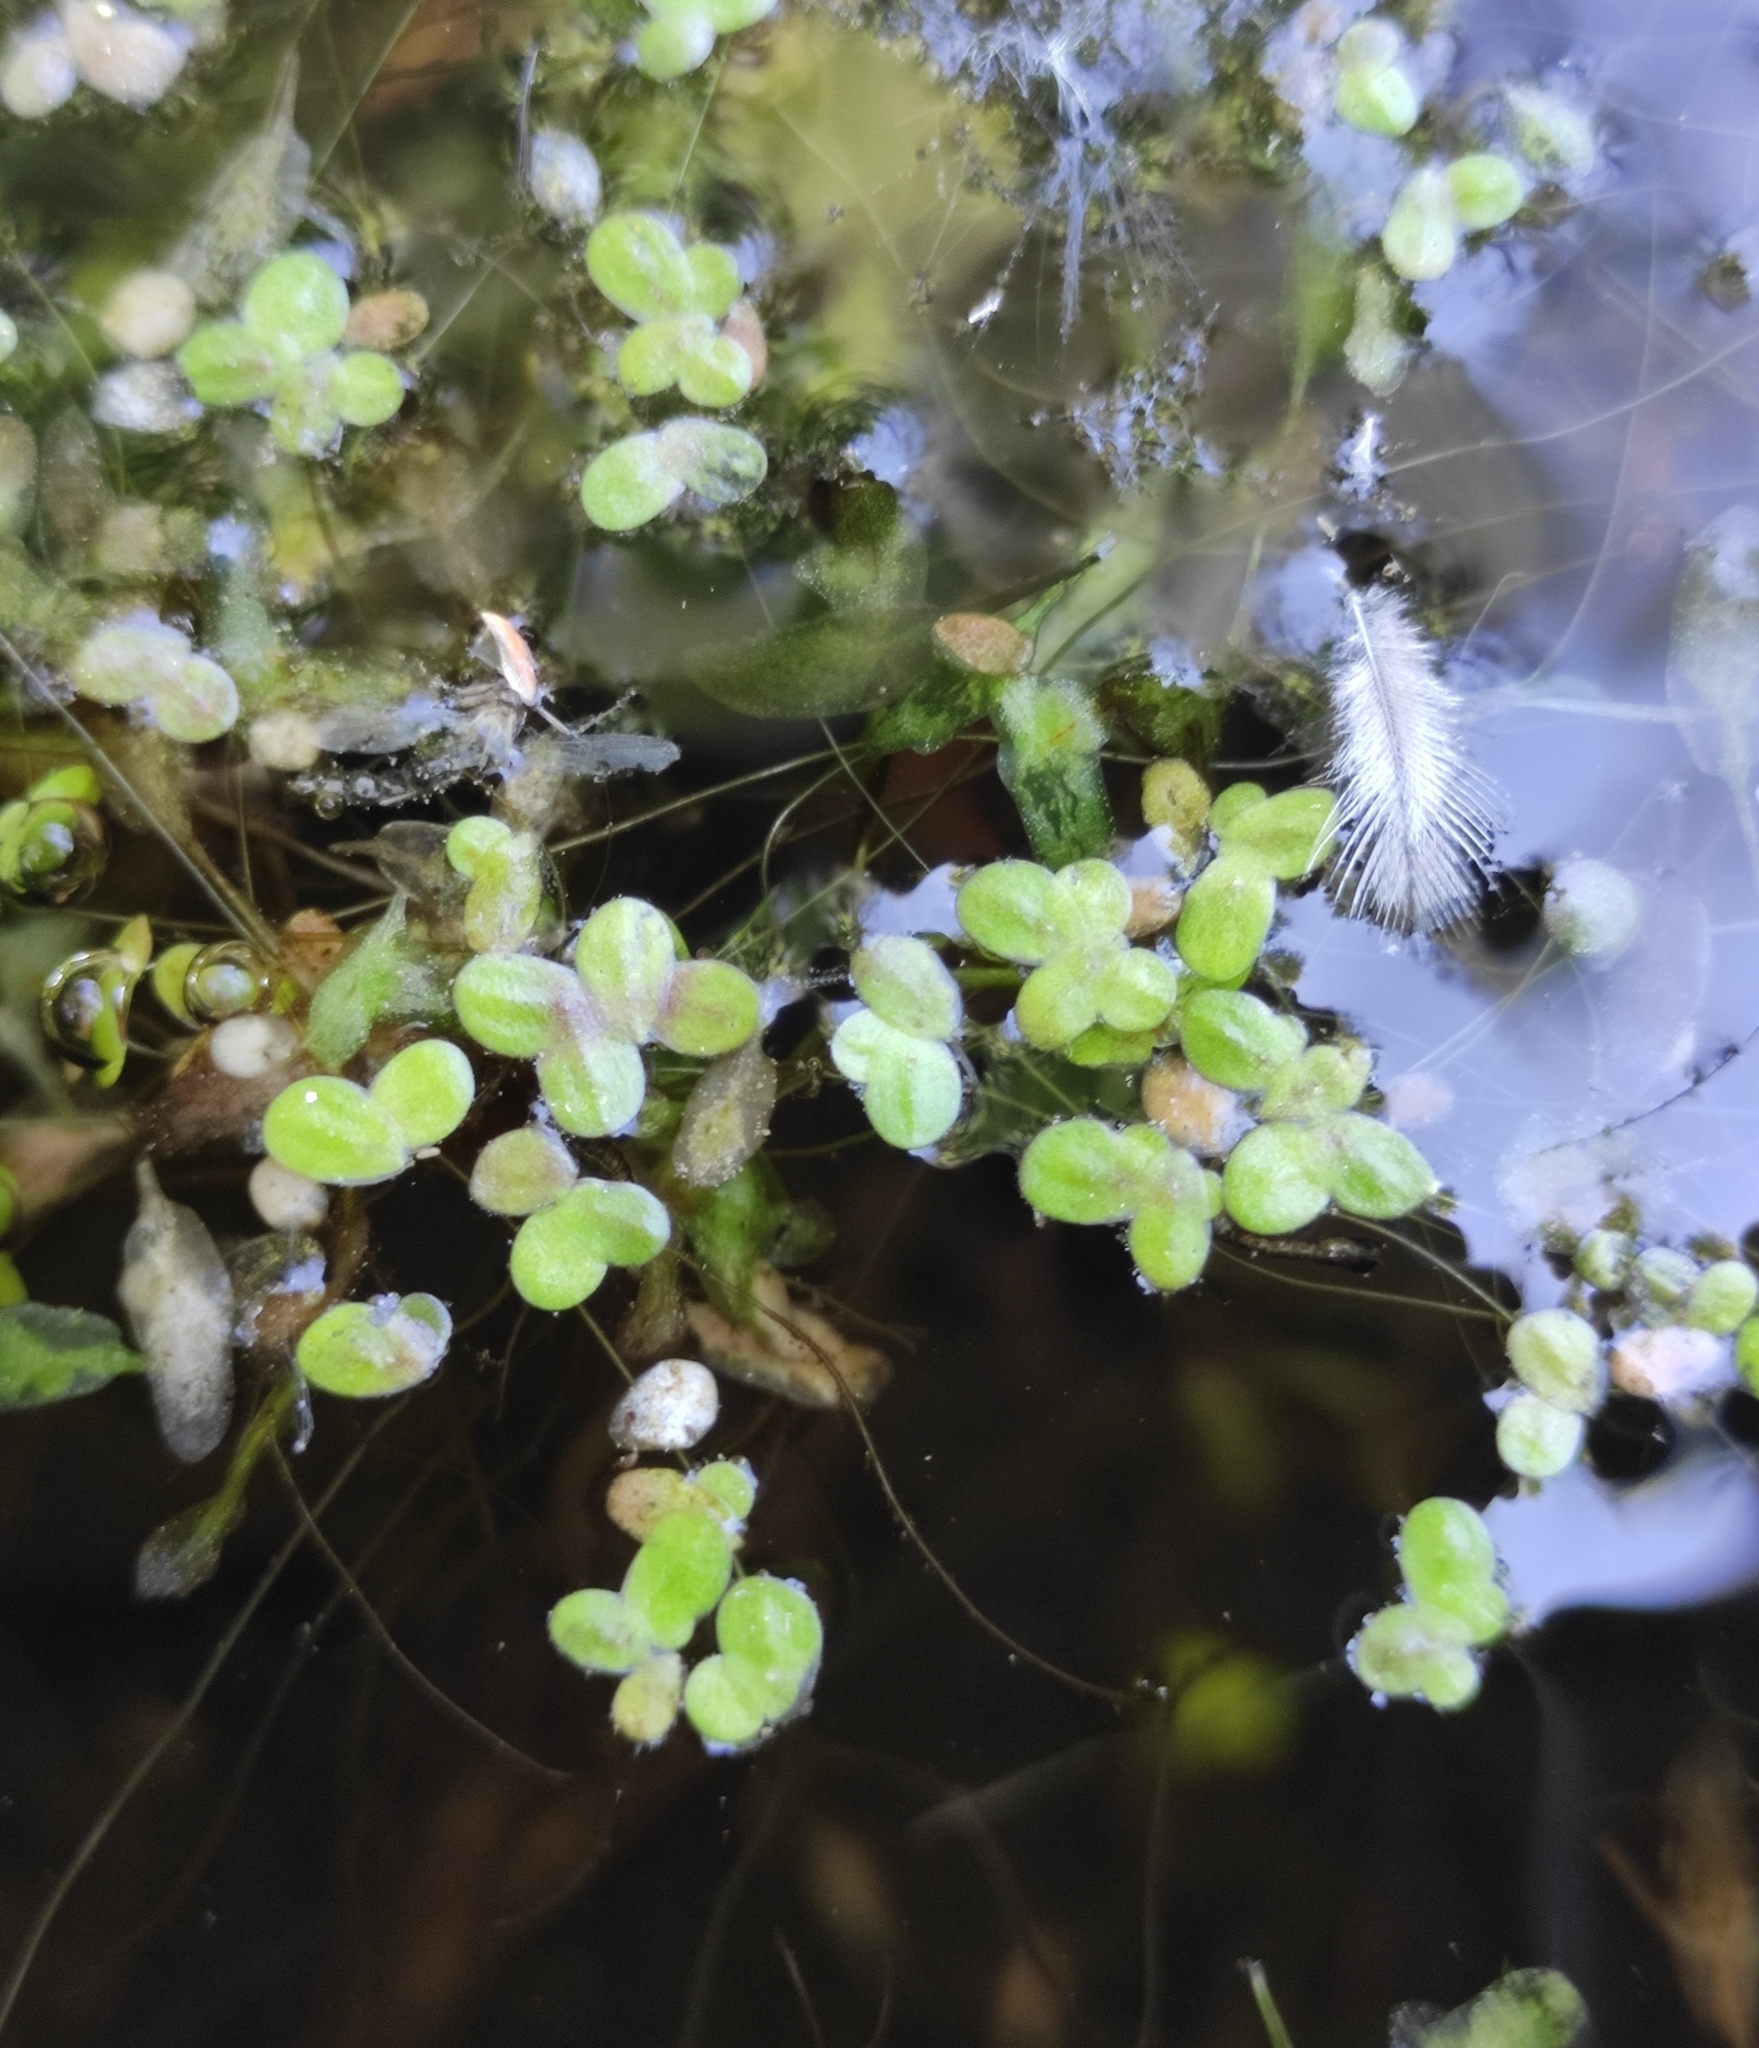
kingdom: Plantae
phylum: Tracheophyta
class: Liliopsida
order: Alismatales
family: Araceae
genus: Lemna
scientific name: Lemna turionifera
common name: Perennial duckweed
